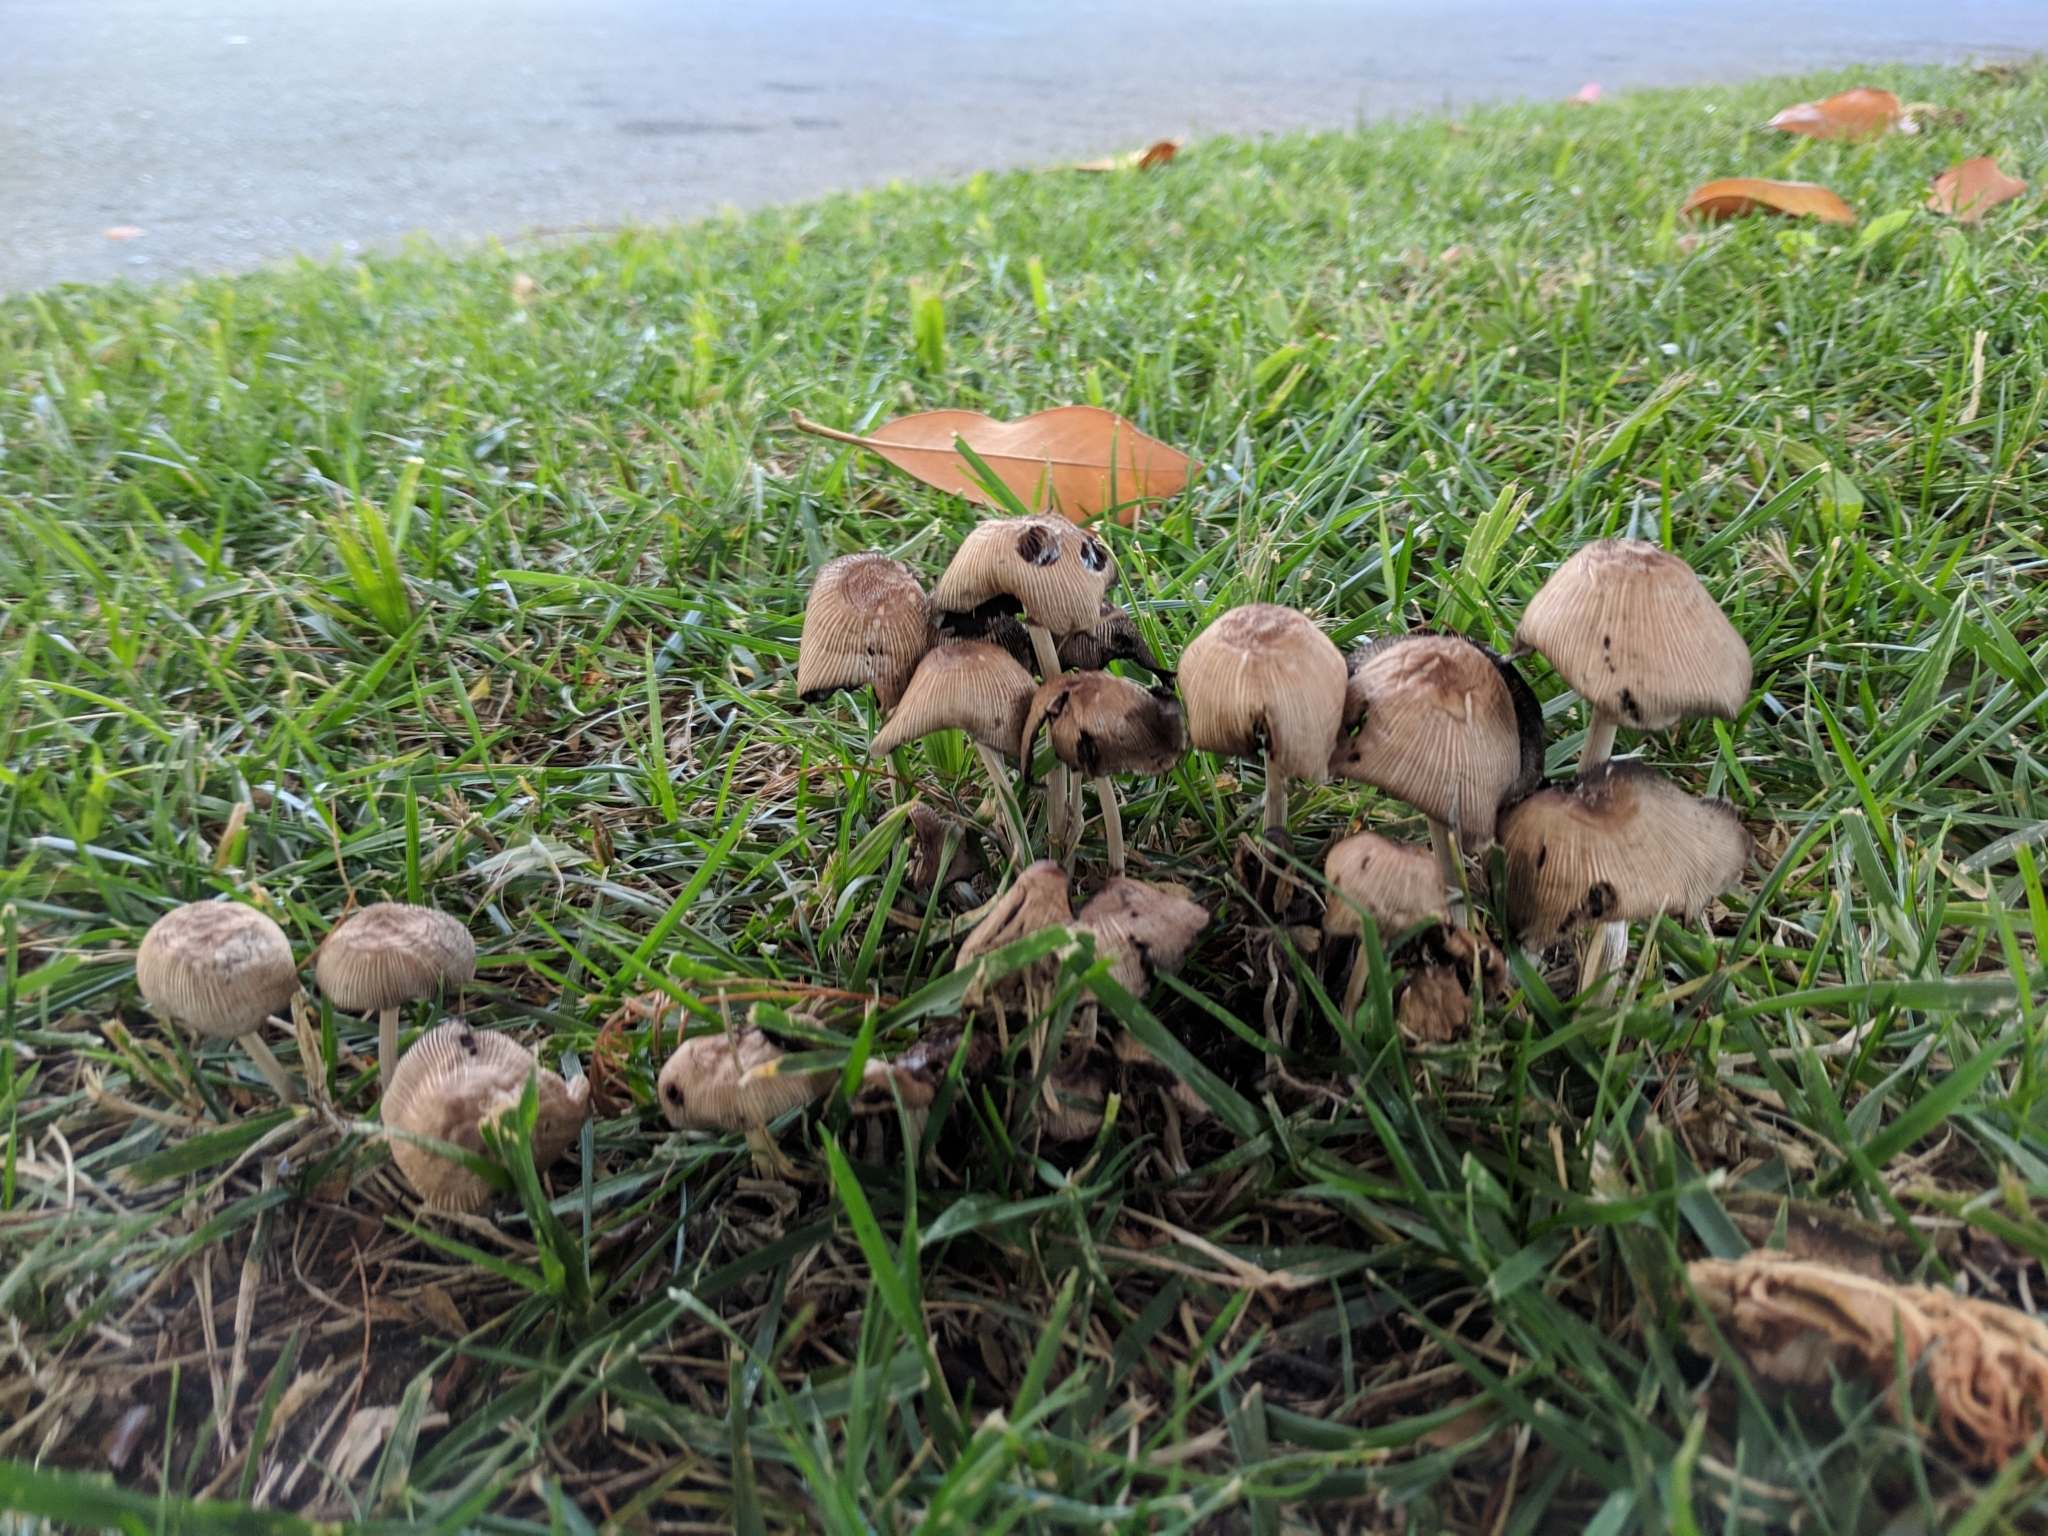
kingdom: Fungi
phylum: Basidiomycota
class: Agaricomycetes
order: Agaricales
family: Psathyrellaceae
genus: Coprinellus
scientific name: Coprinellus micaceus
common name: Glistening ink-cap
